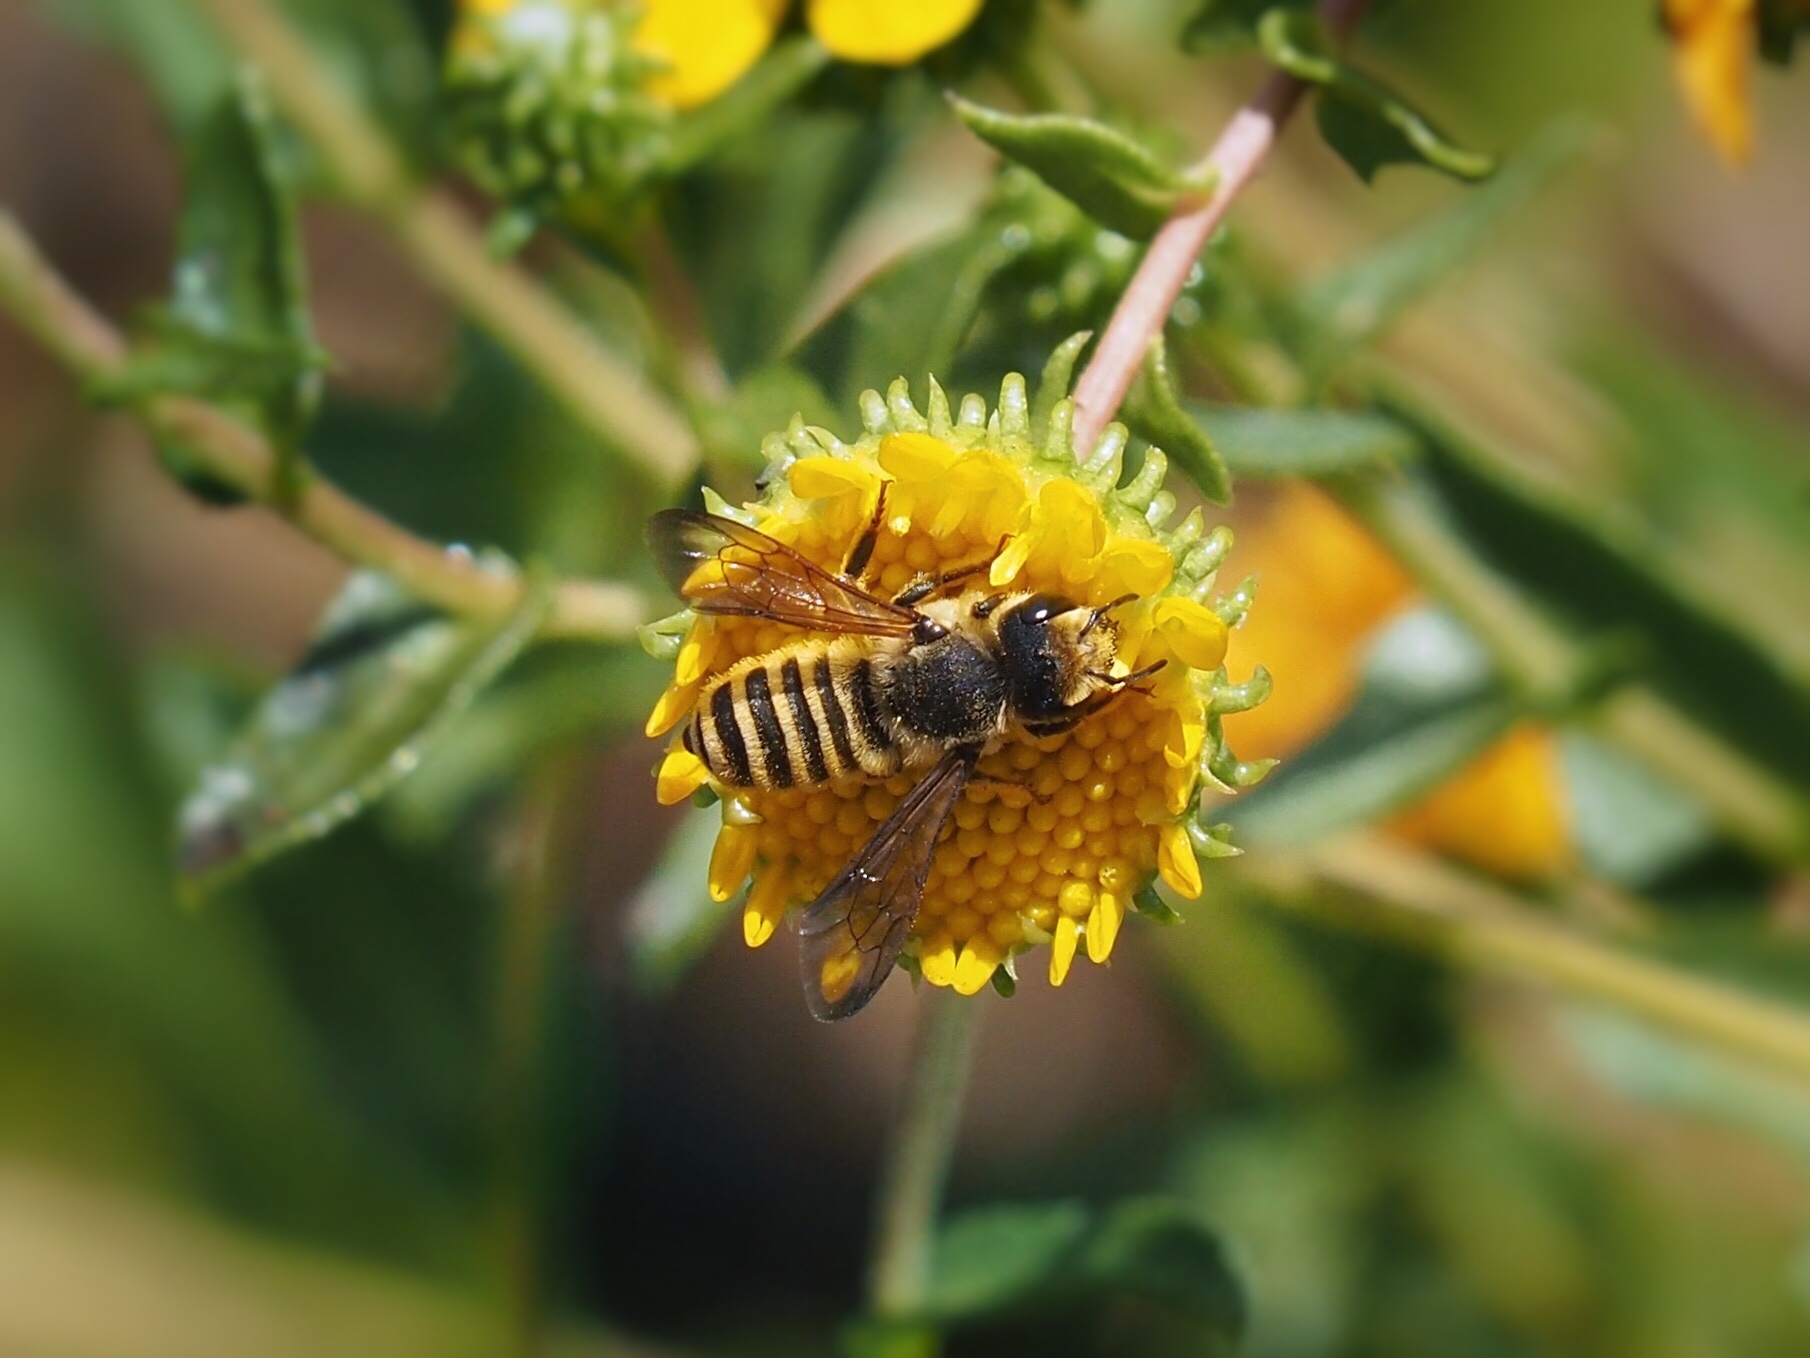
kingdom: Animalia
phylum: Arthropoda
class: Insecta
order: Hymenoptera
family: Megachilidae
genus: Megachile
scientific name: Megachile fidelis
